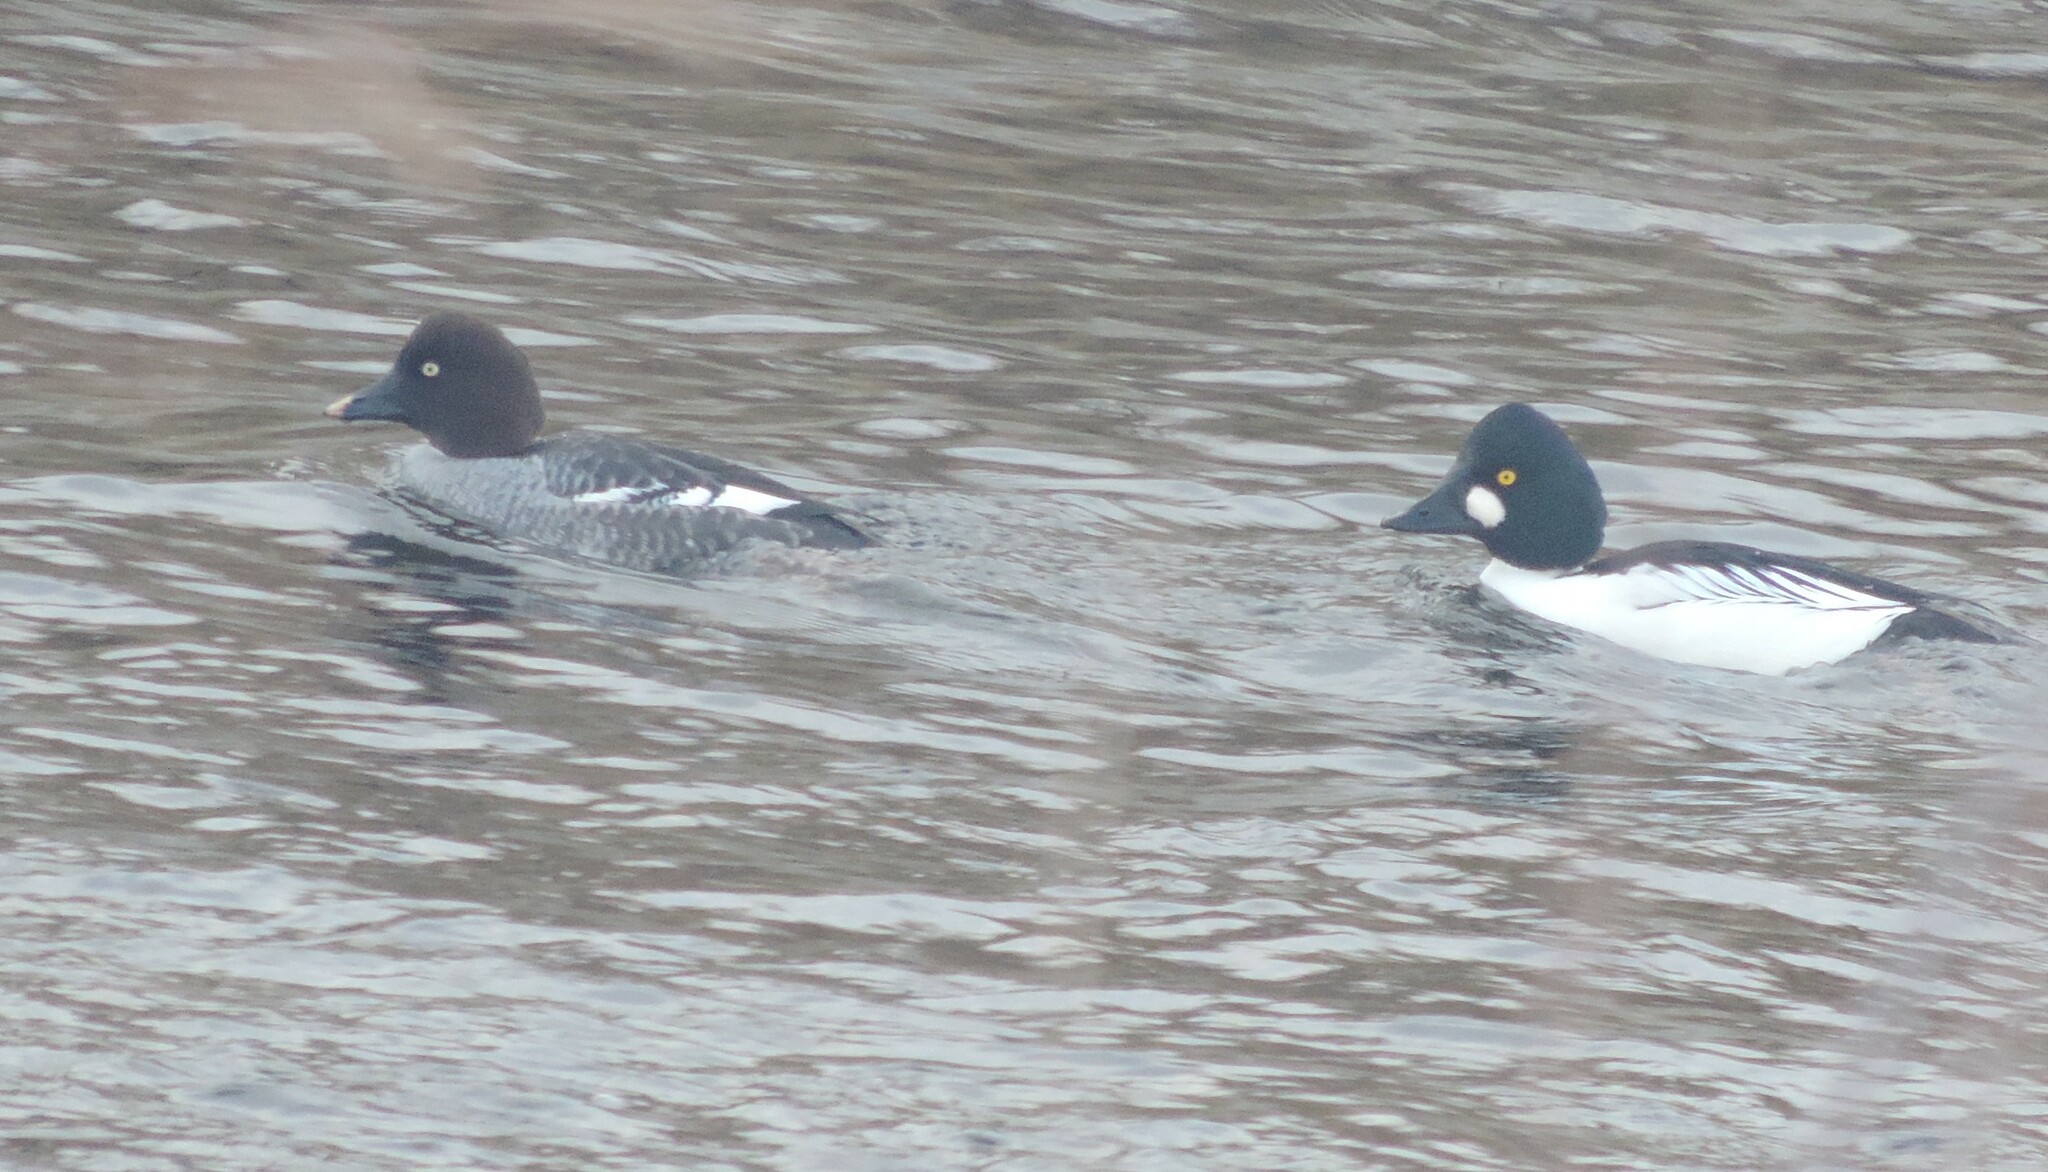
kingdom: Animalia
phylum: Chordata
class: Aves
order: Anseriformes
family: Anatidae
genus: Bucephala
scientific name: Bucephala clangula
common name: Common goldeneye
